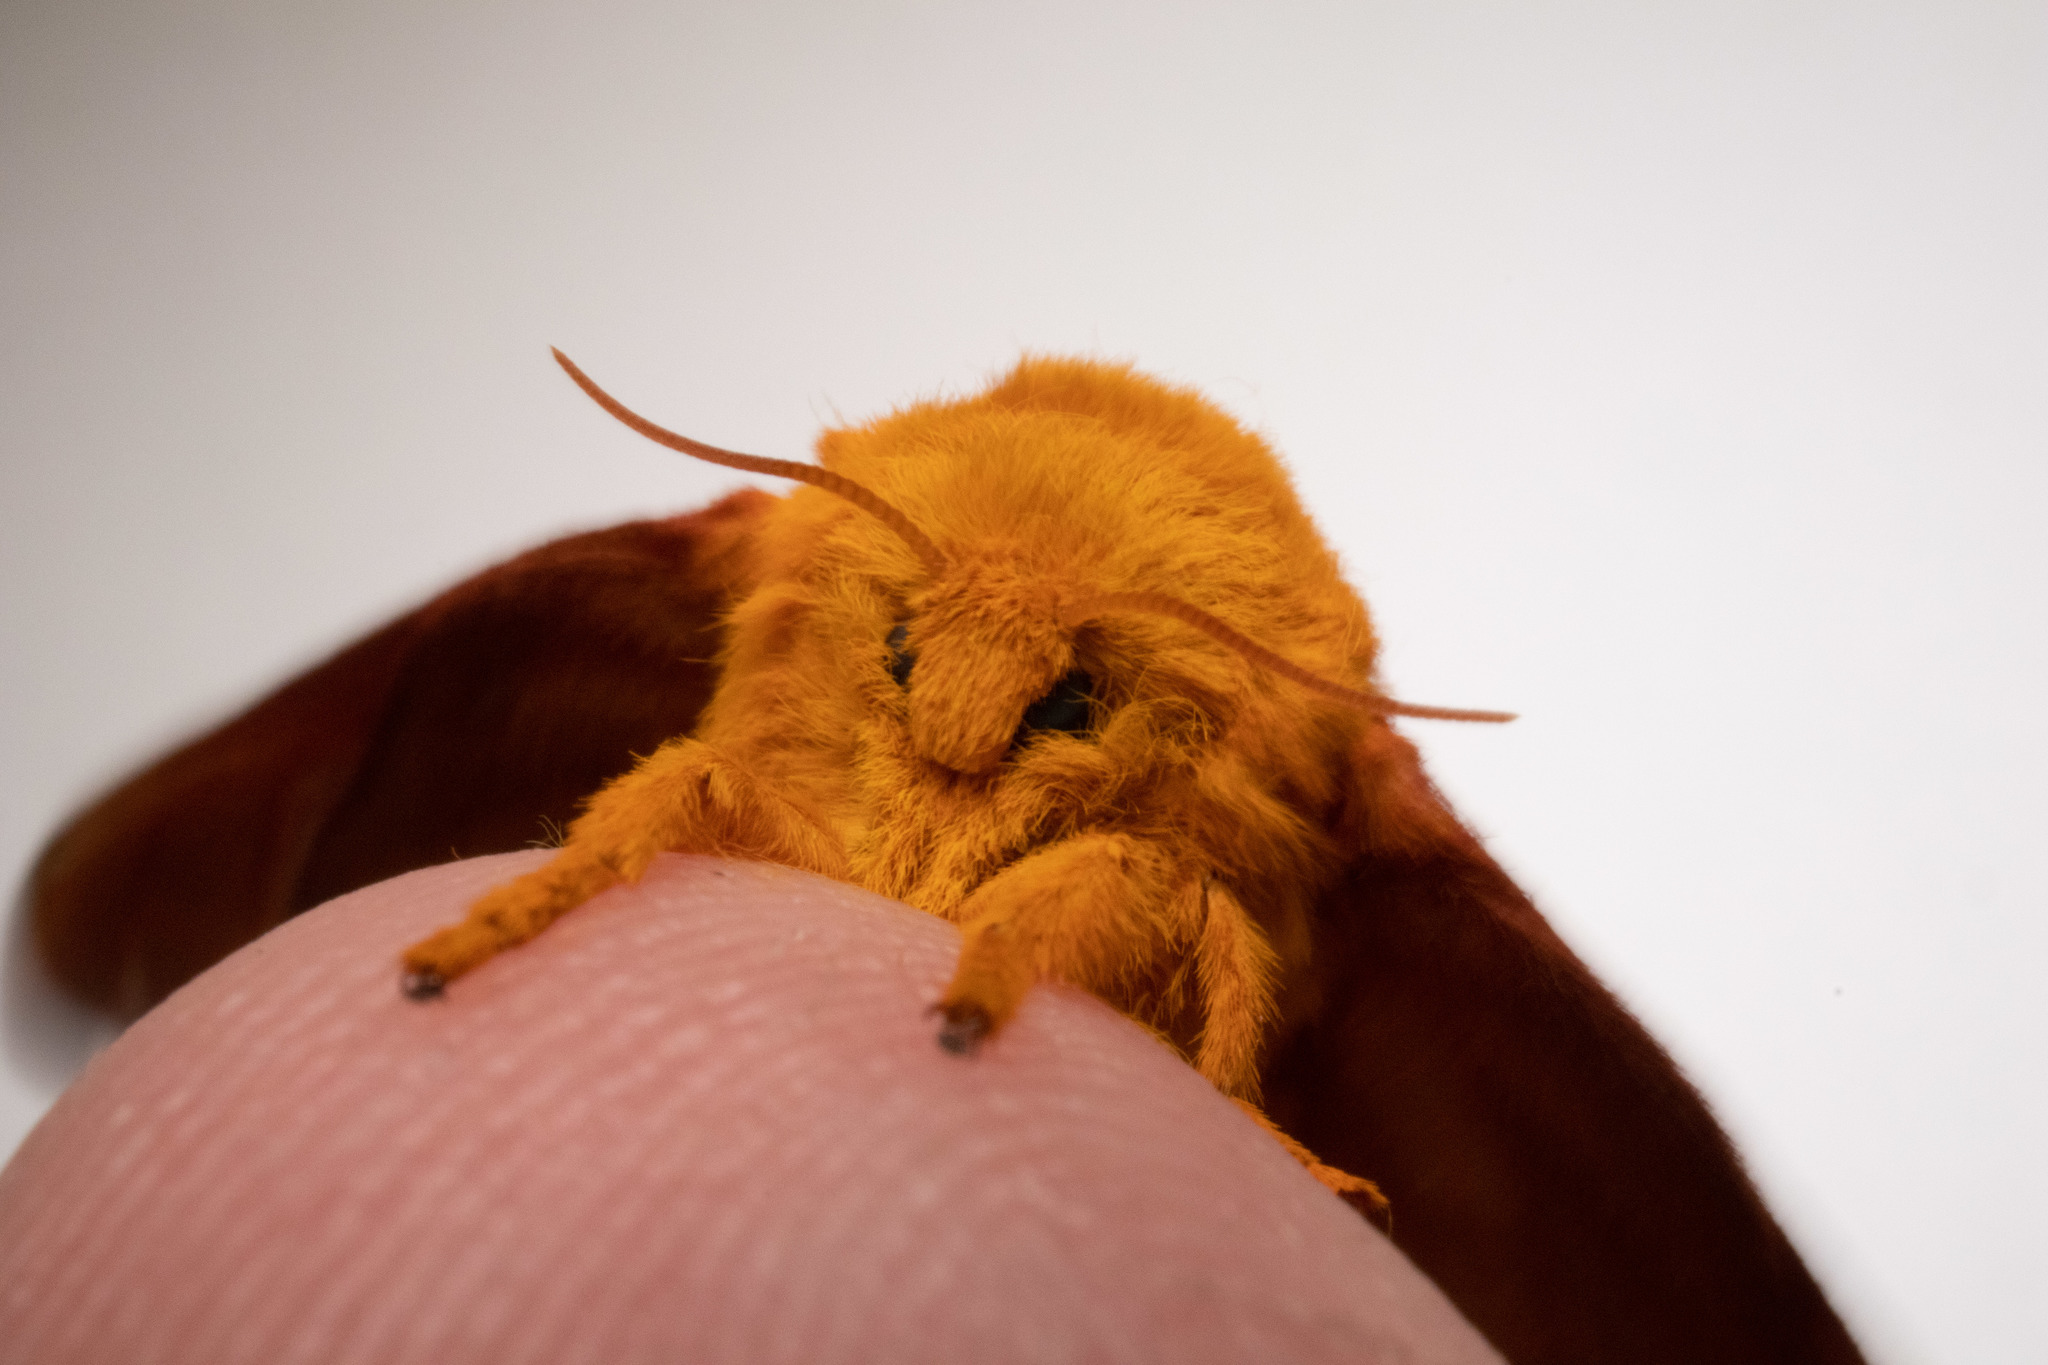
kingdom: Animalia
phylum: Arthropoda
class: Insecta
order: Lepidoptera
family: Saturniidae
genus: Anisota
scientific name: Anisota virginiensis
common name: Pink striped oakworm moth
